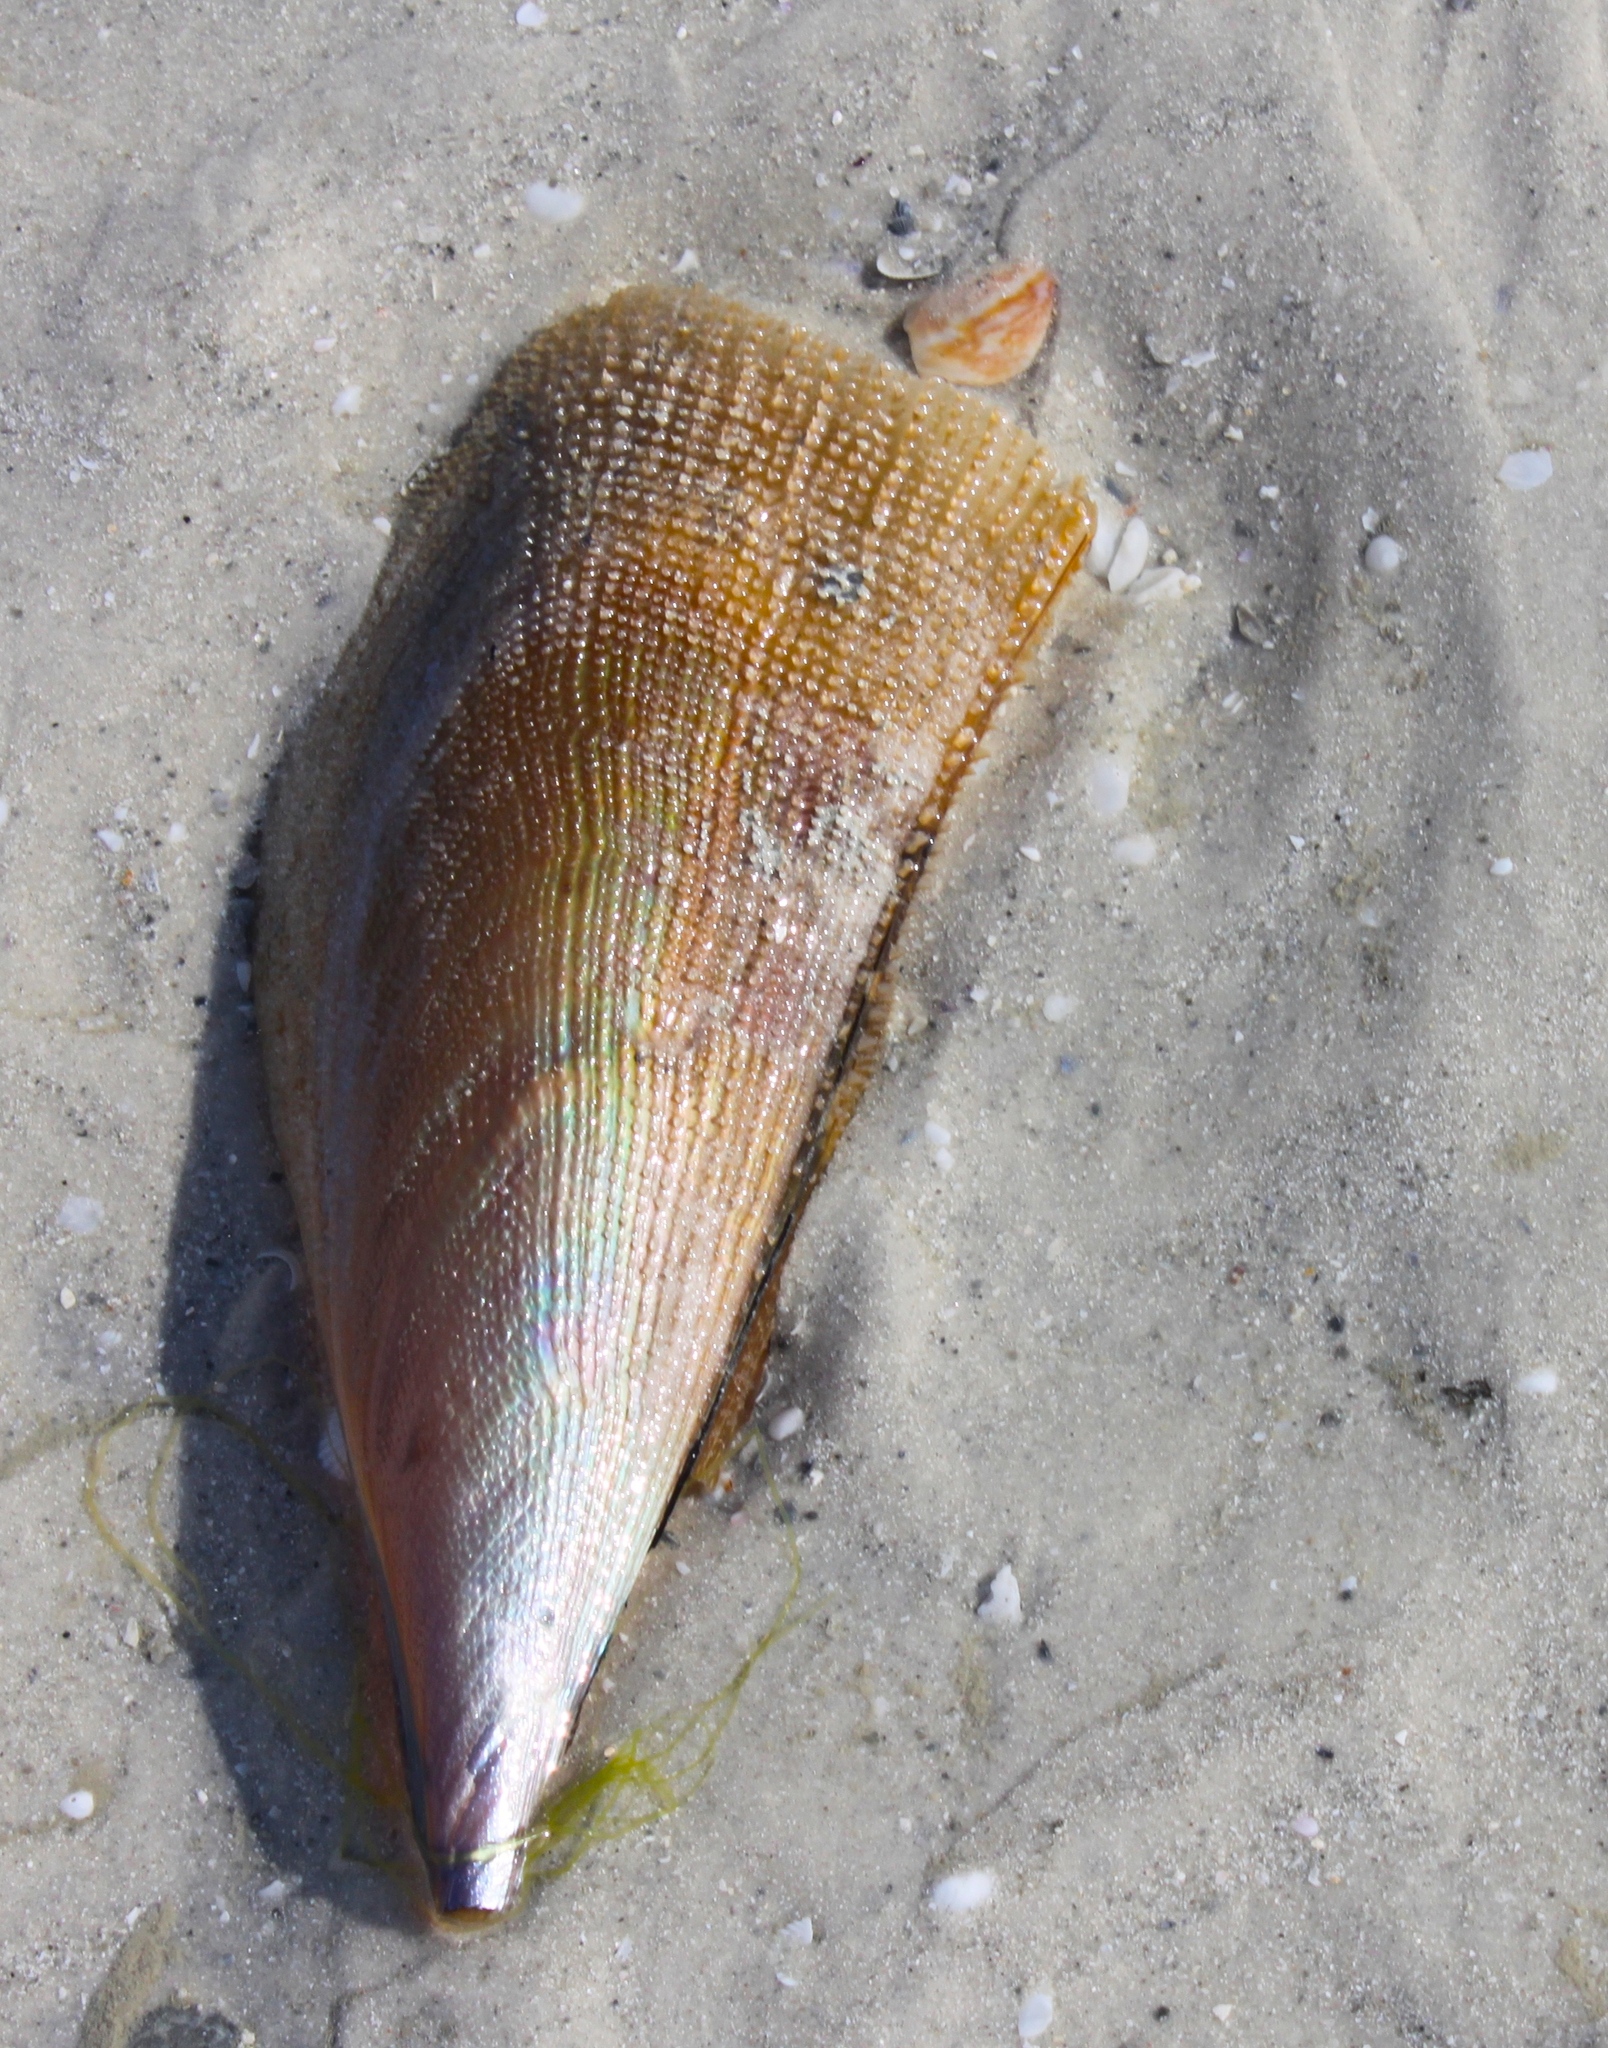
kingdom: Animalia
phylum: Mollusca
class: Bivalvia
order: Ostreida
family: Pinnidae
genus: Atrina
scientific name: Atrina serrata
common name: Saw-toothed penshell
